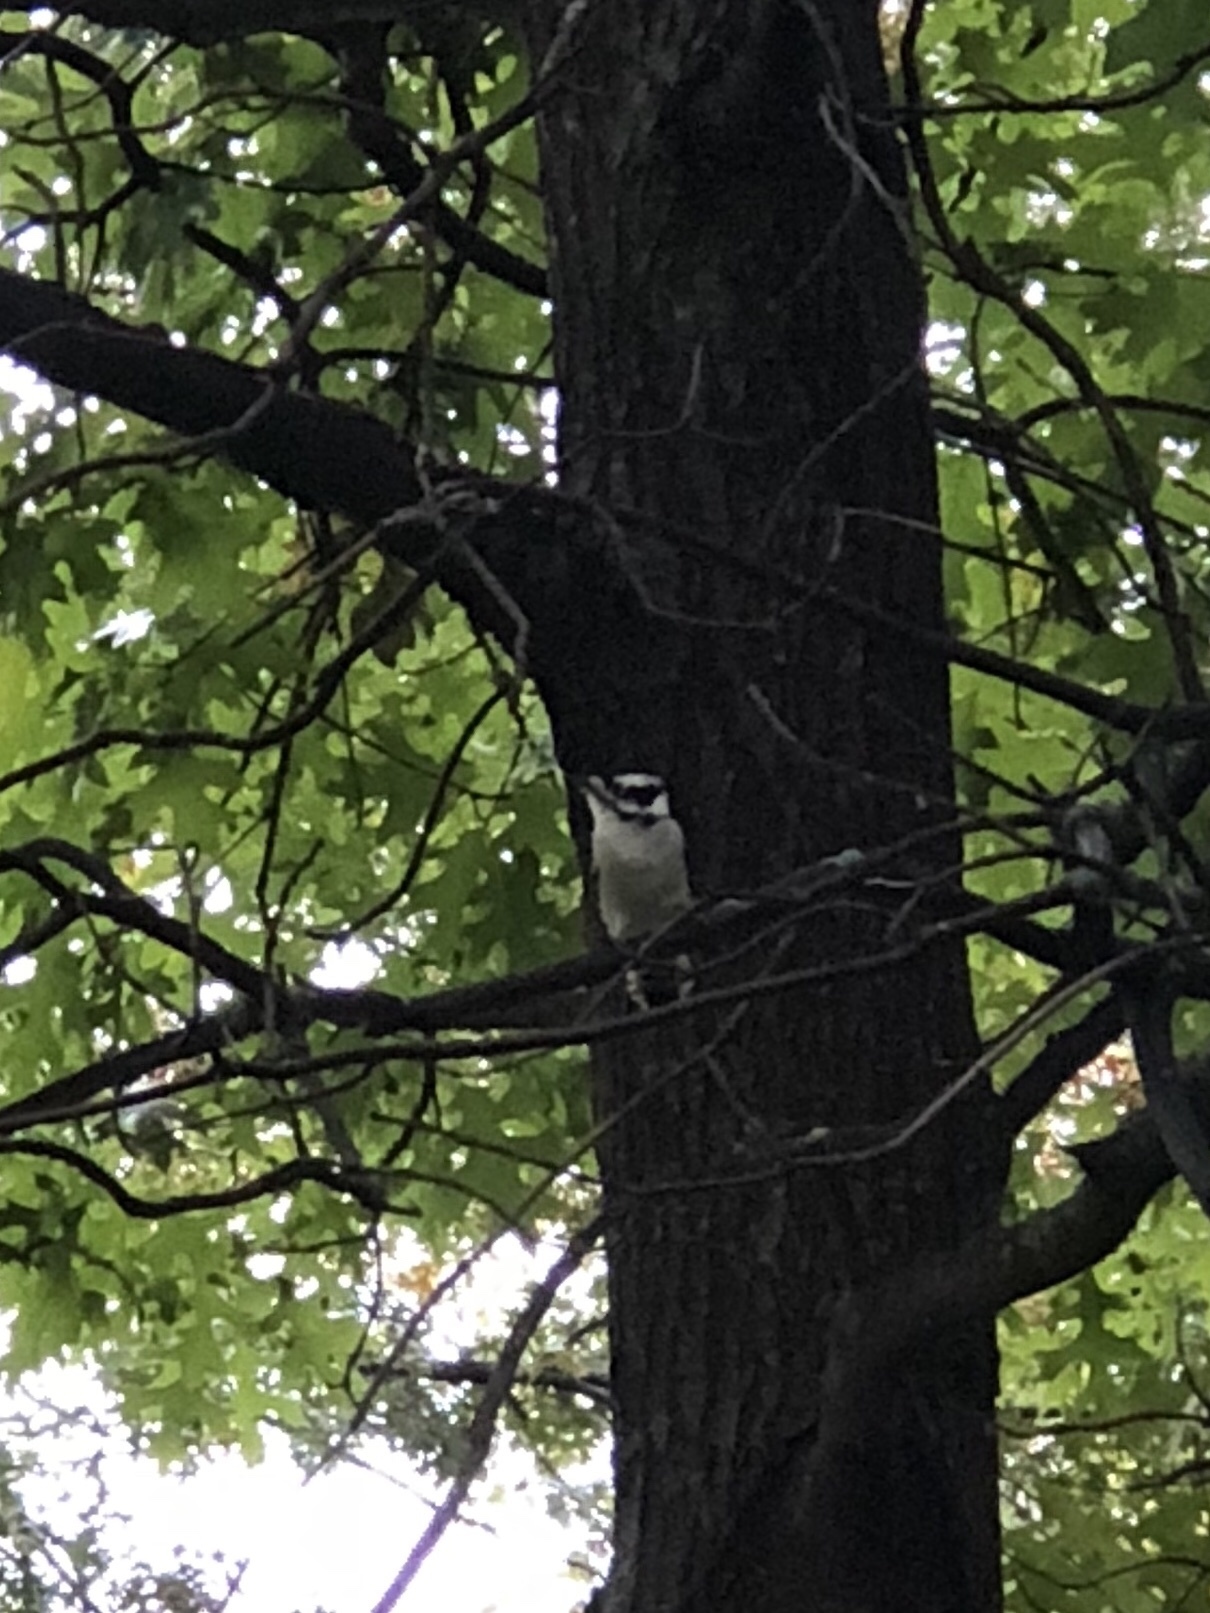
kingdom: Animalia
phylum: Chordata
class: Aves
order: Piciformes
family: Picidae
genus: Dryobates
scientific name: Dryobates pubescens
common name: Downy woodpecker
